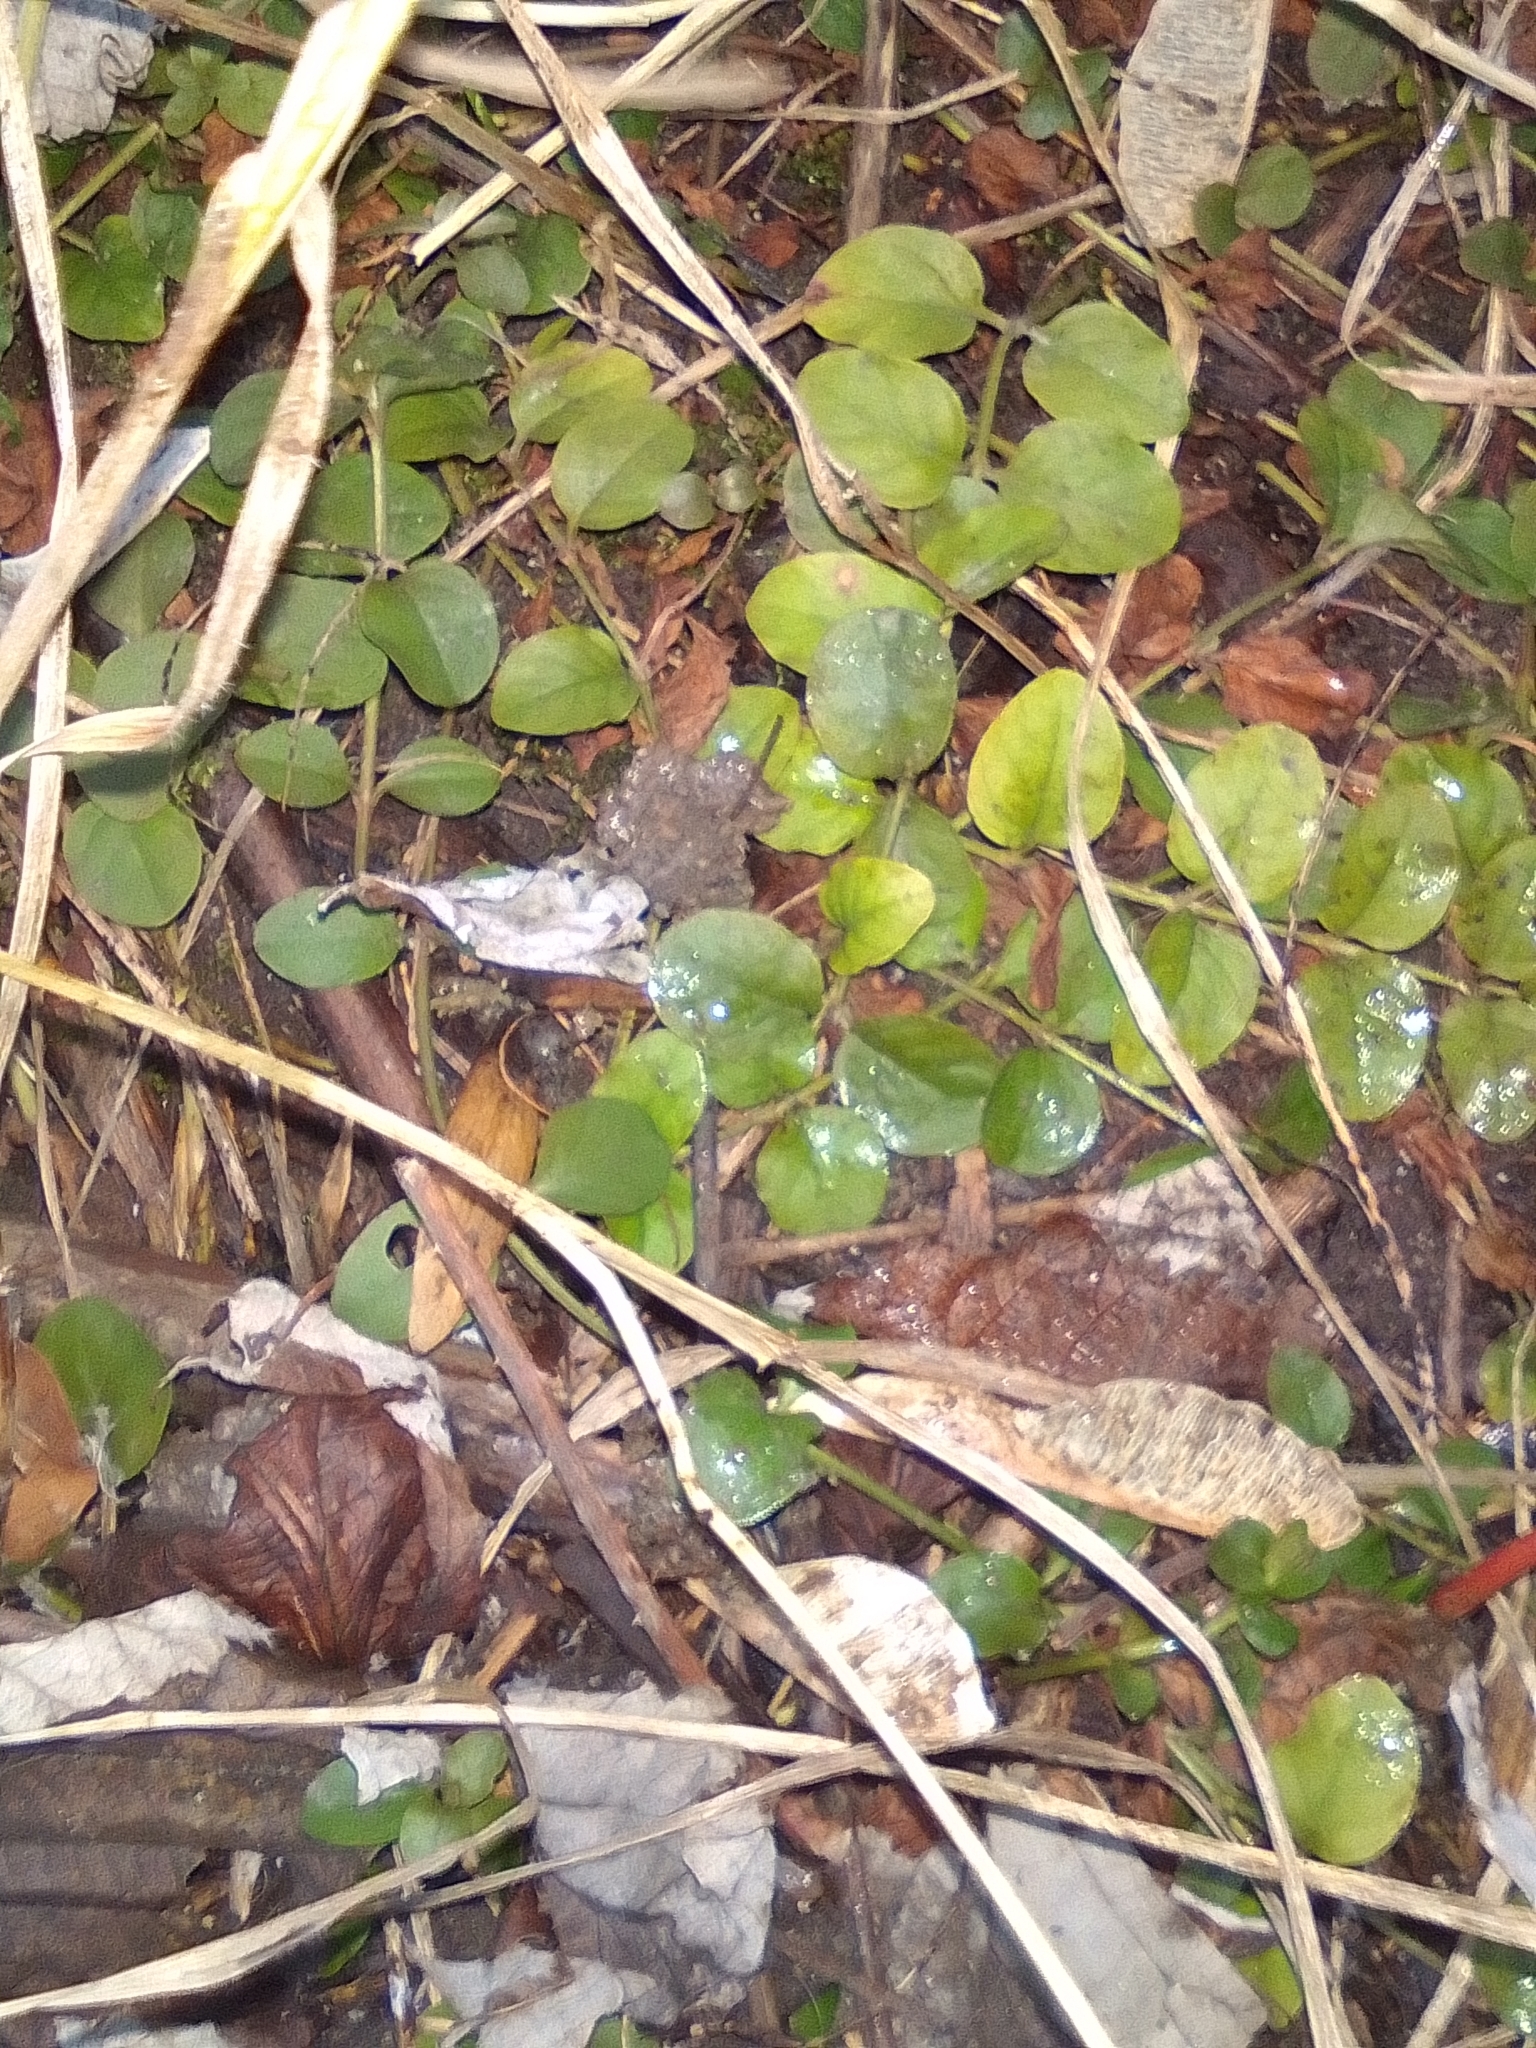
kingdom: Plantae
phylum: Tracheophyta
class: Magnoliopsida
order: Ericales
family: Primulaceae
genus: Lysimachia
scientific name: Lysimachia nummularia
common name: Moneywort
